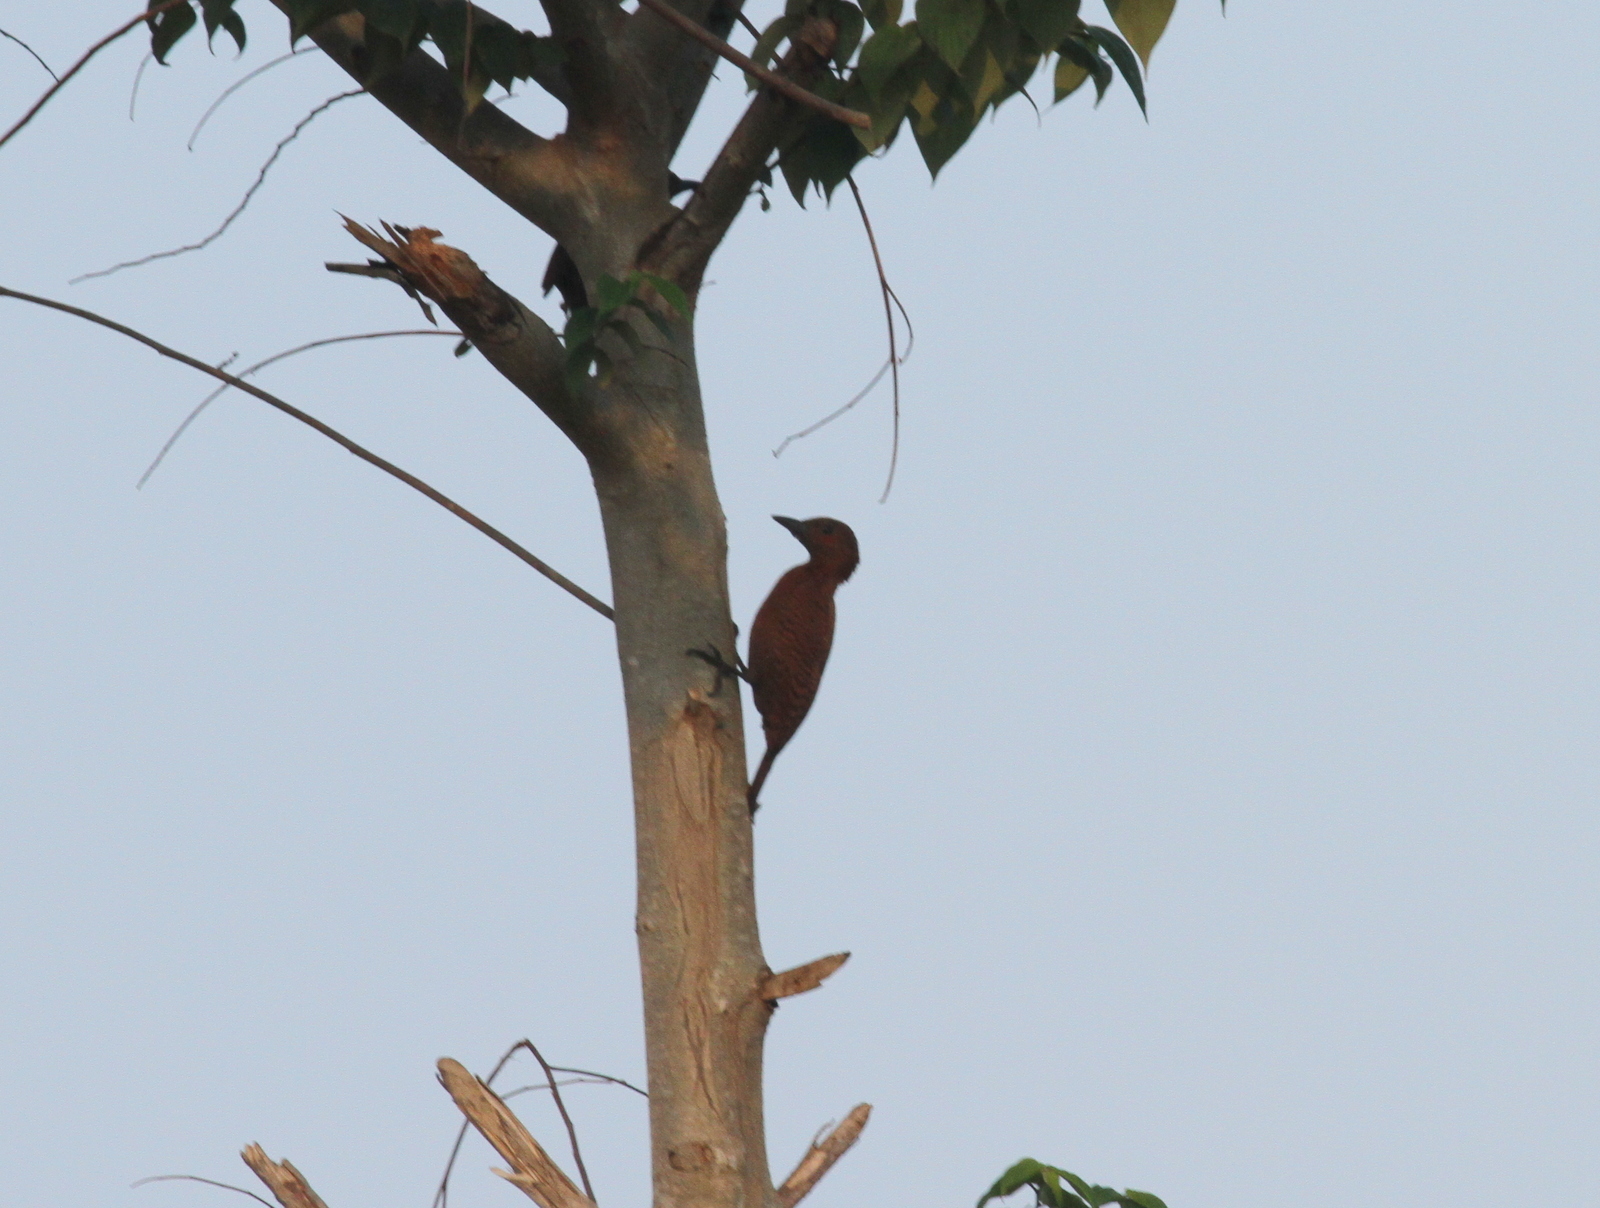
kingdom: Animalia
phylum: Chordata
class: Aves
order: Piciformes
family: Picidae
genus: Micropternus
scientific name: Micropternus brachyurus
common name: Rufous woodpecker
